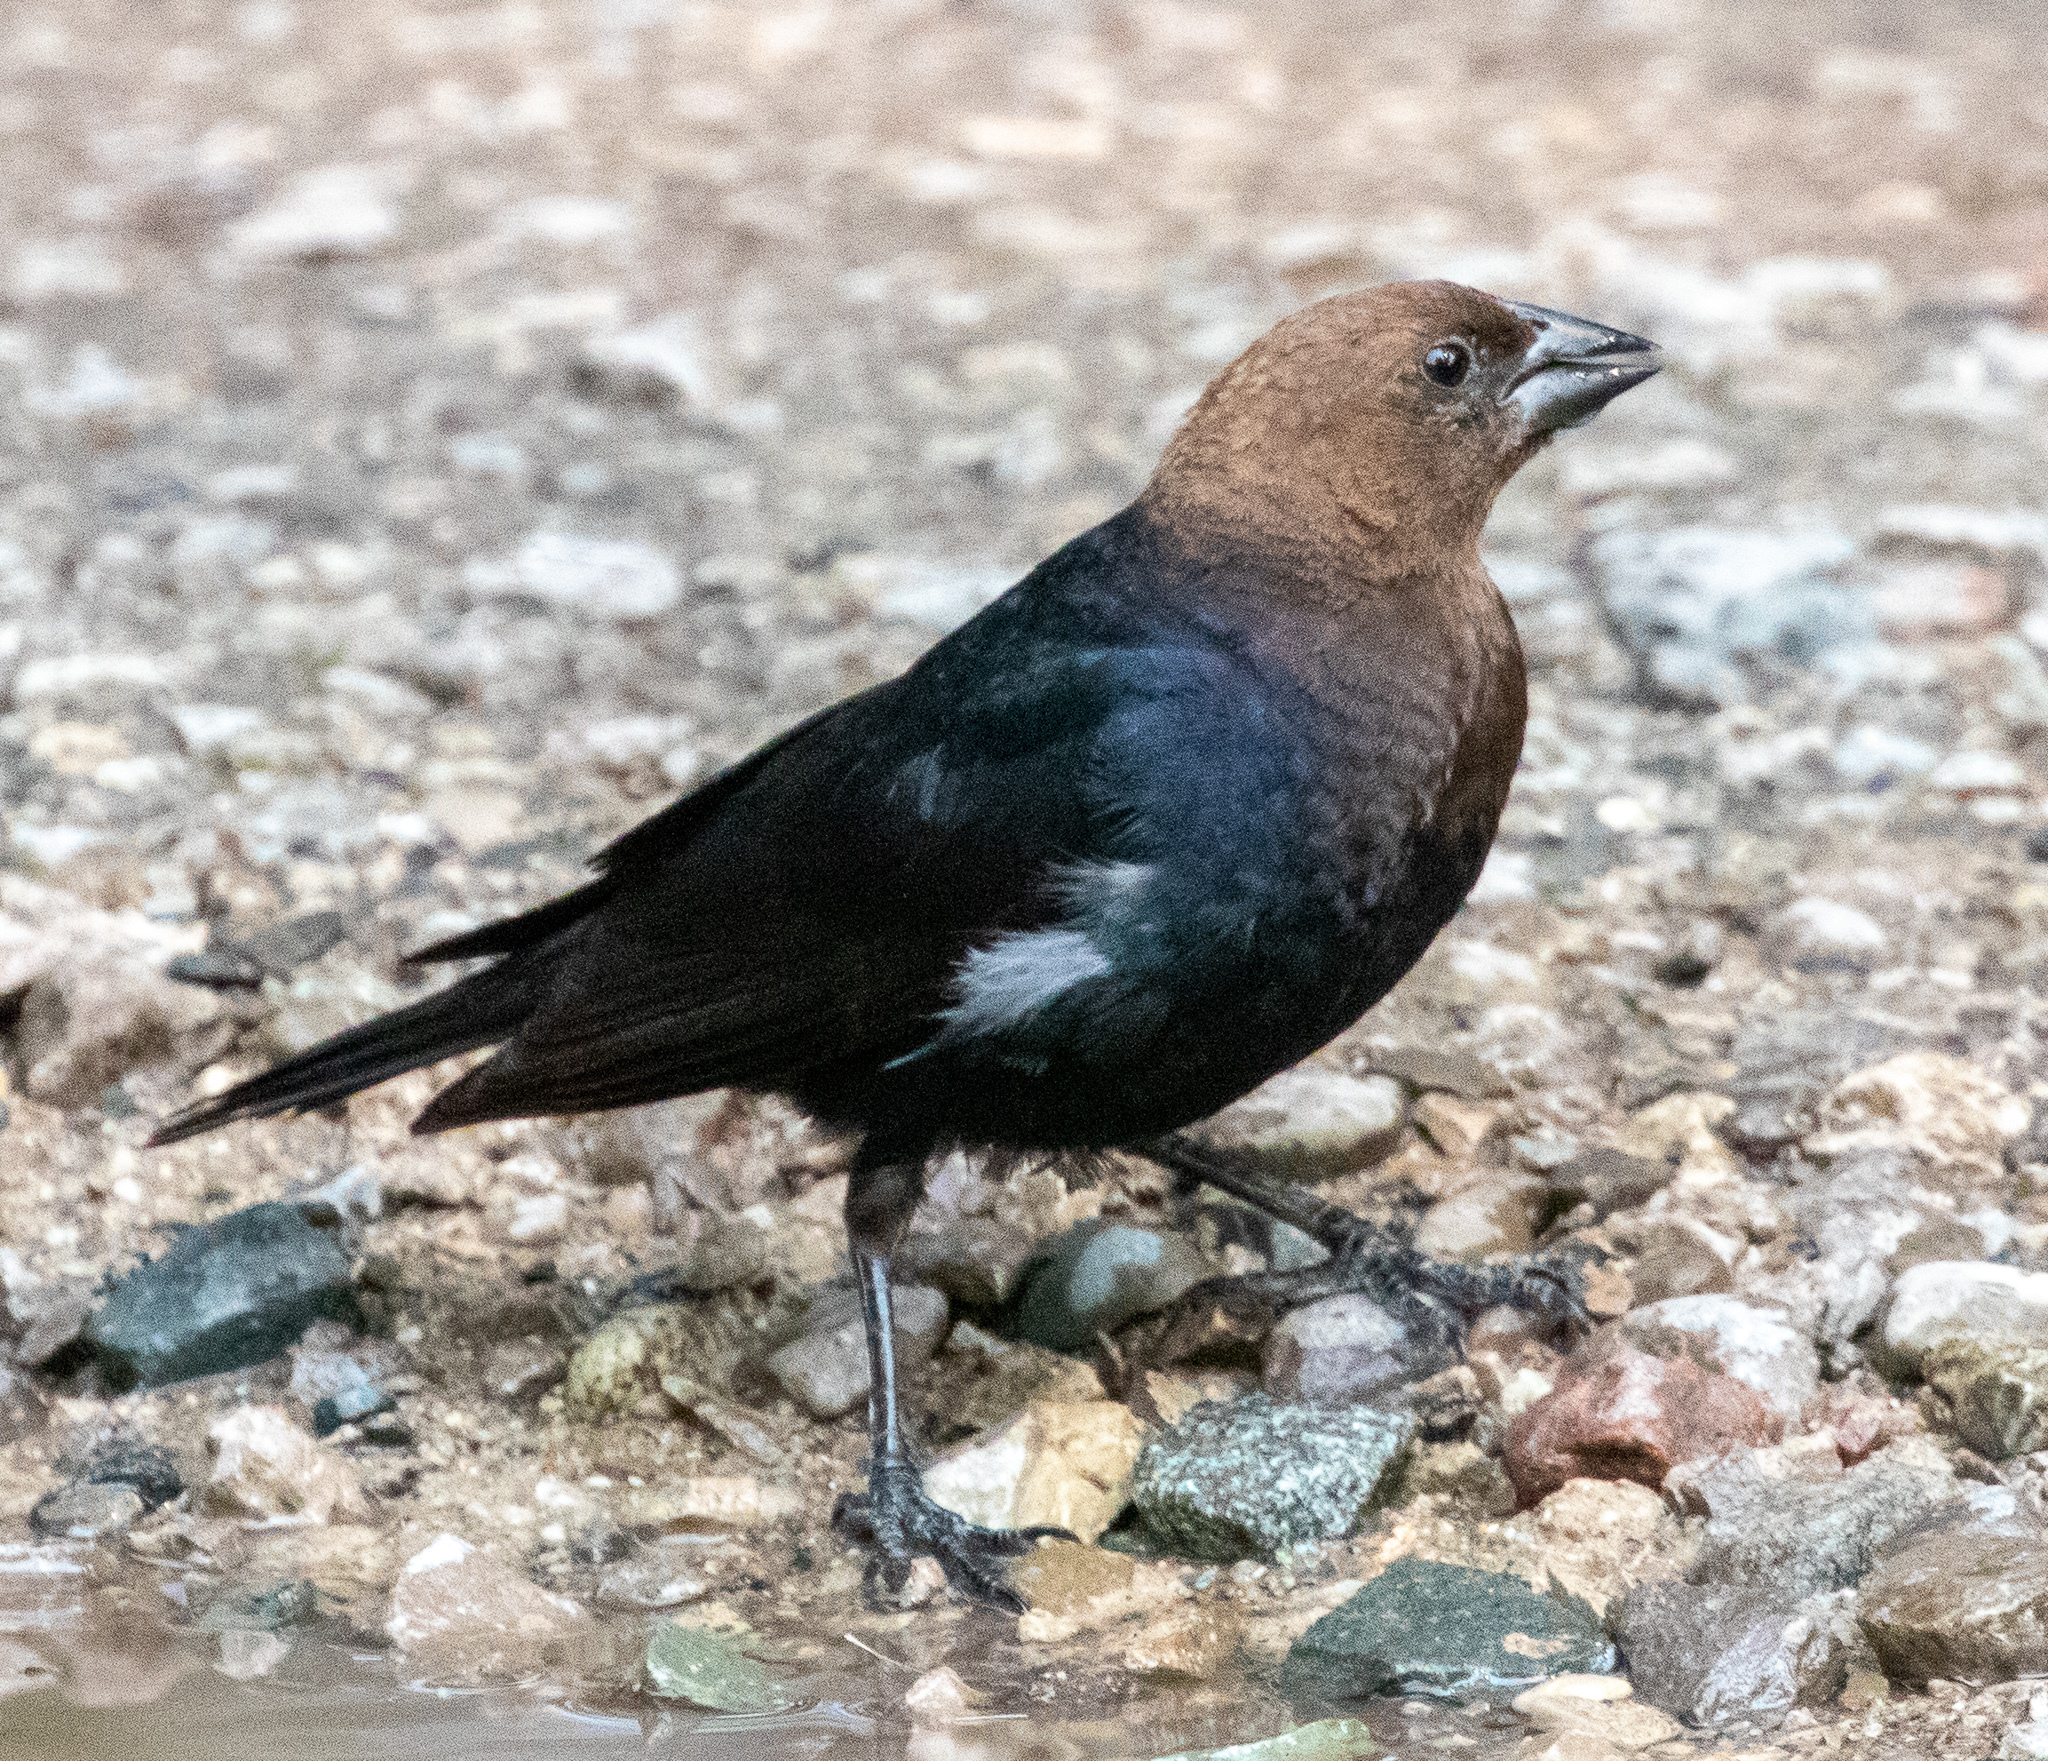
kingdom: Animalia
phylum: Chordata
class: Aves
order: Passeriformes
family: Icteridae
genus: Molothrus
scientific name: Molothrus ater
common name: Brown-headed cowbird
